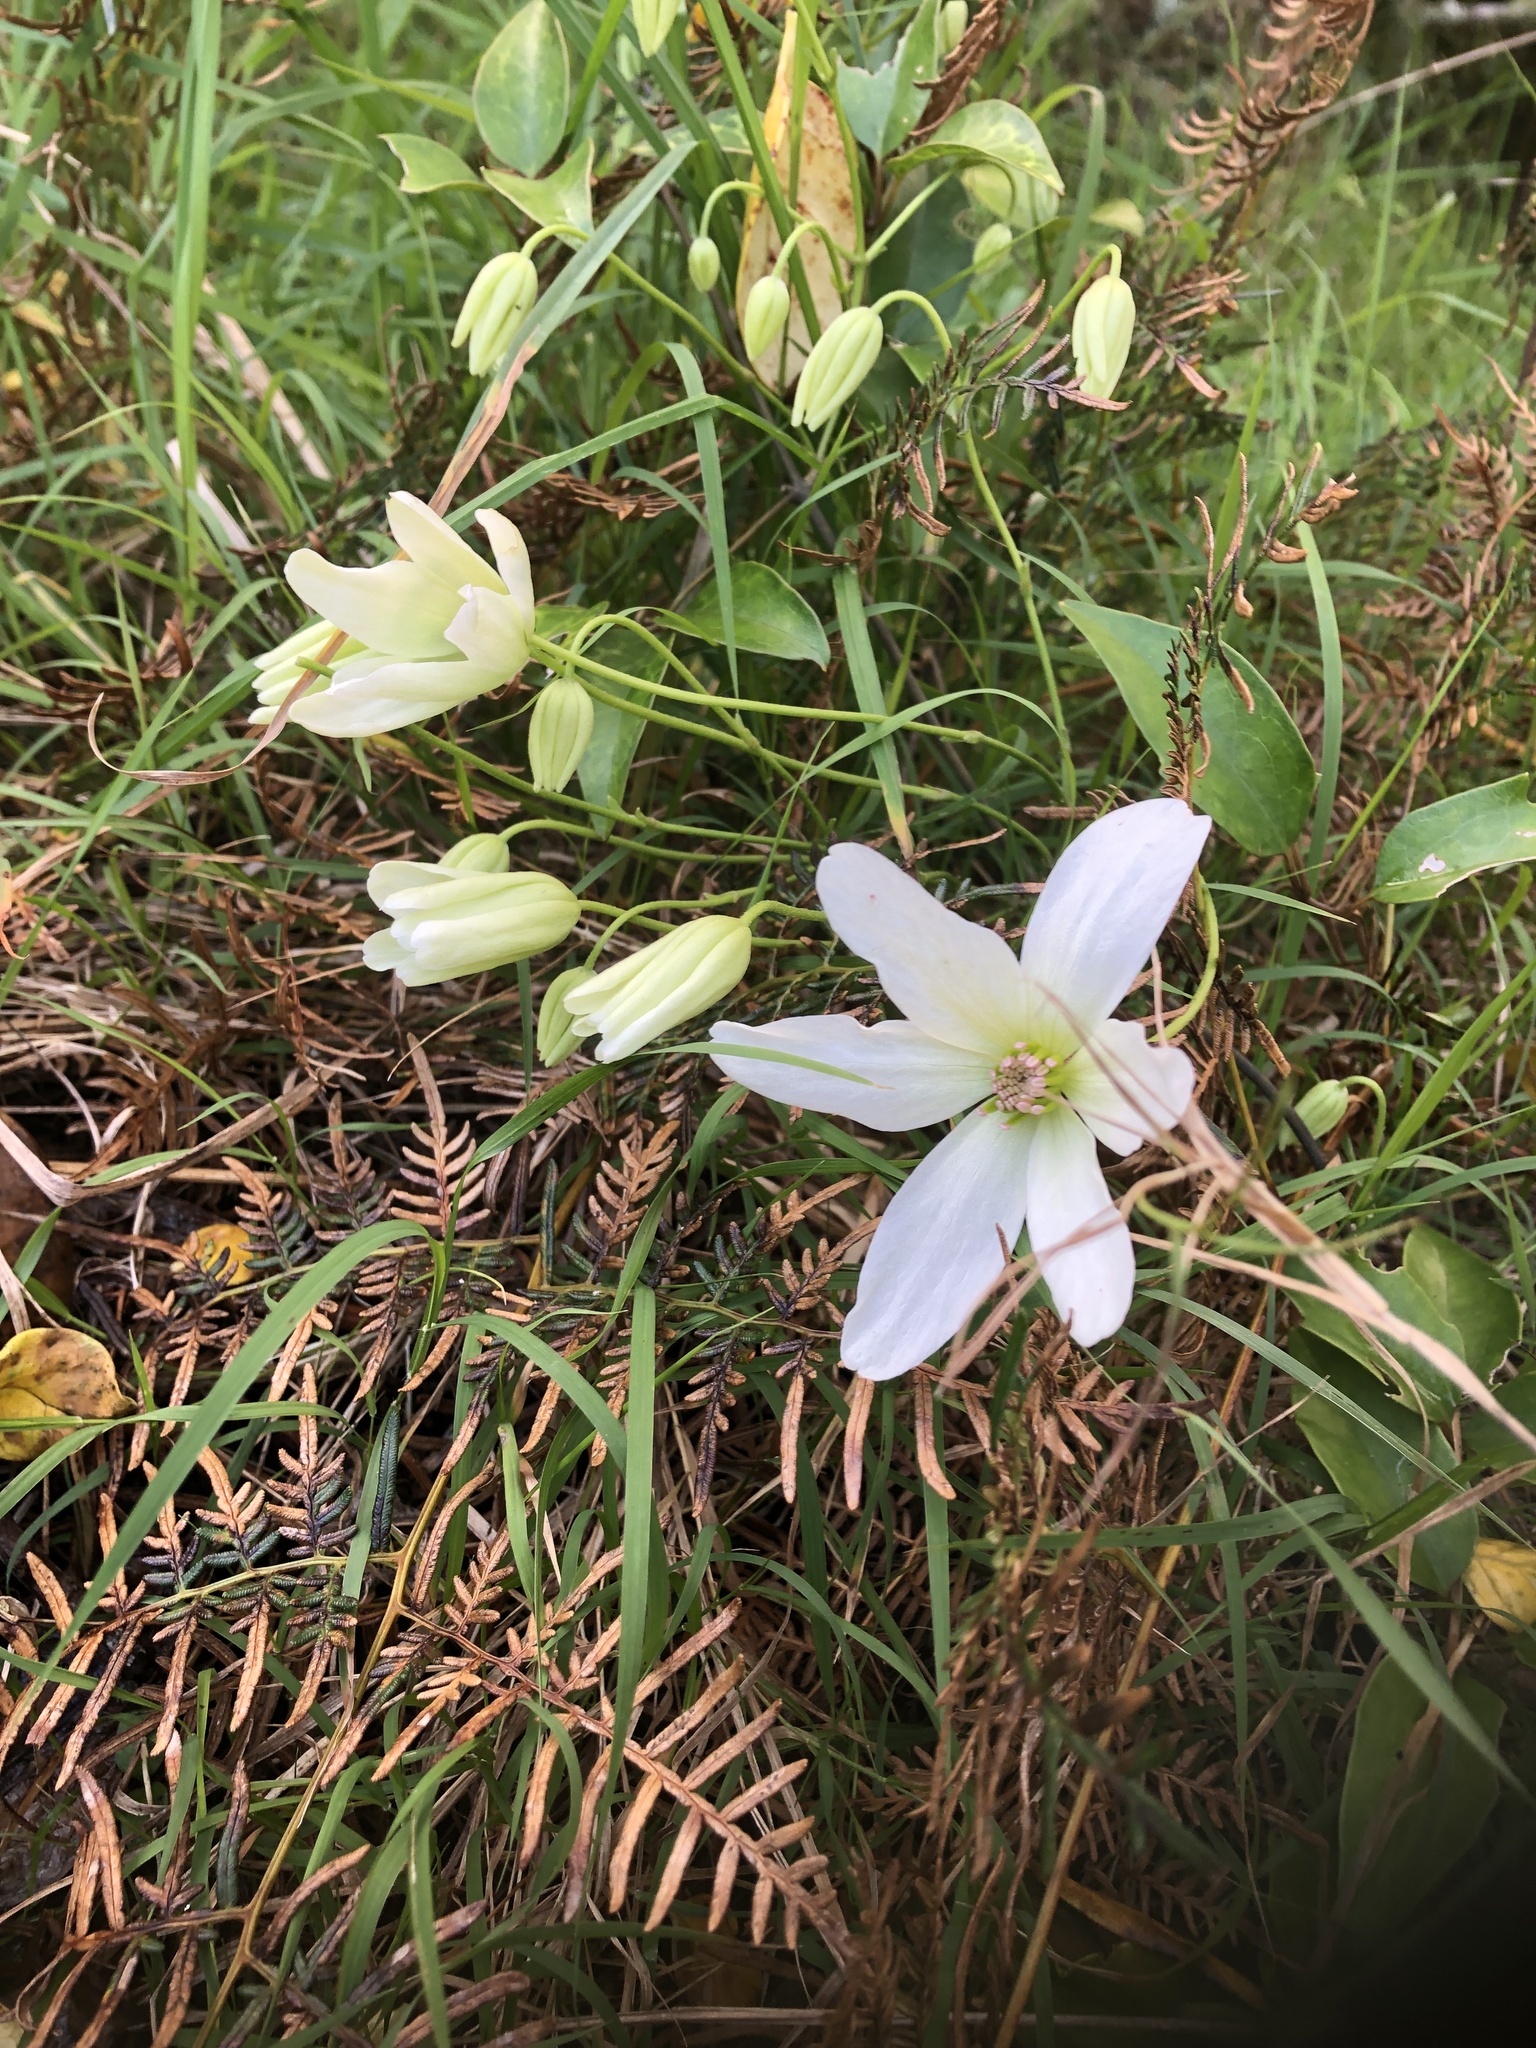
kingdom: Plantae
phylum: Tracheophyta
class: Magnoliopsida
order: Ranunculales
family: Ranunculaceae
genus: Clematis
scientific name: Clematis paniculata
